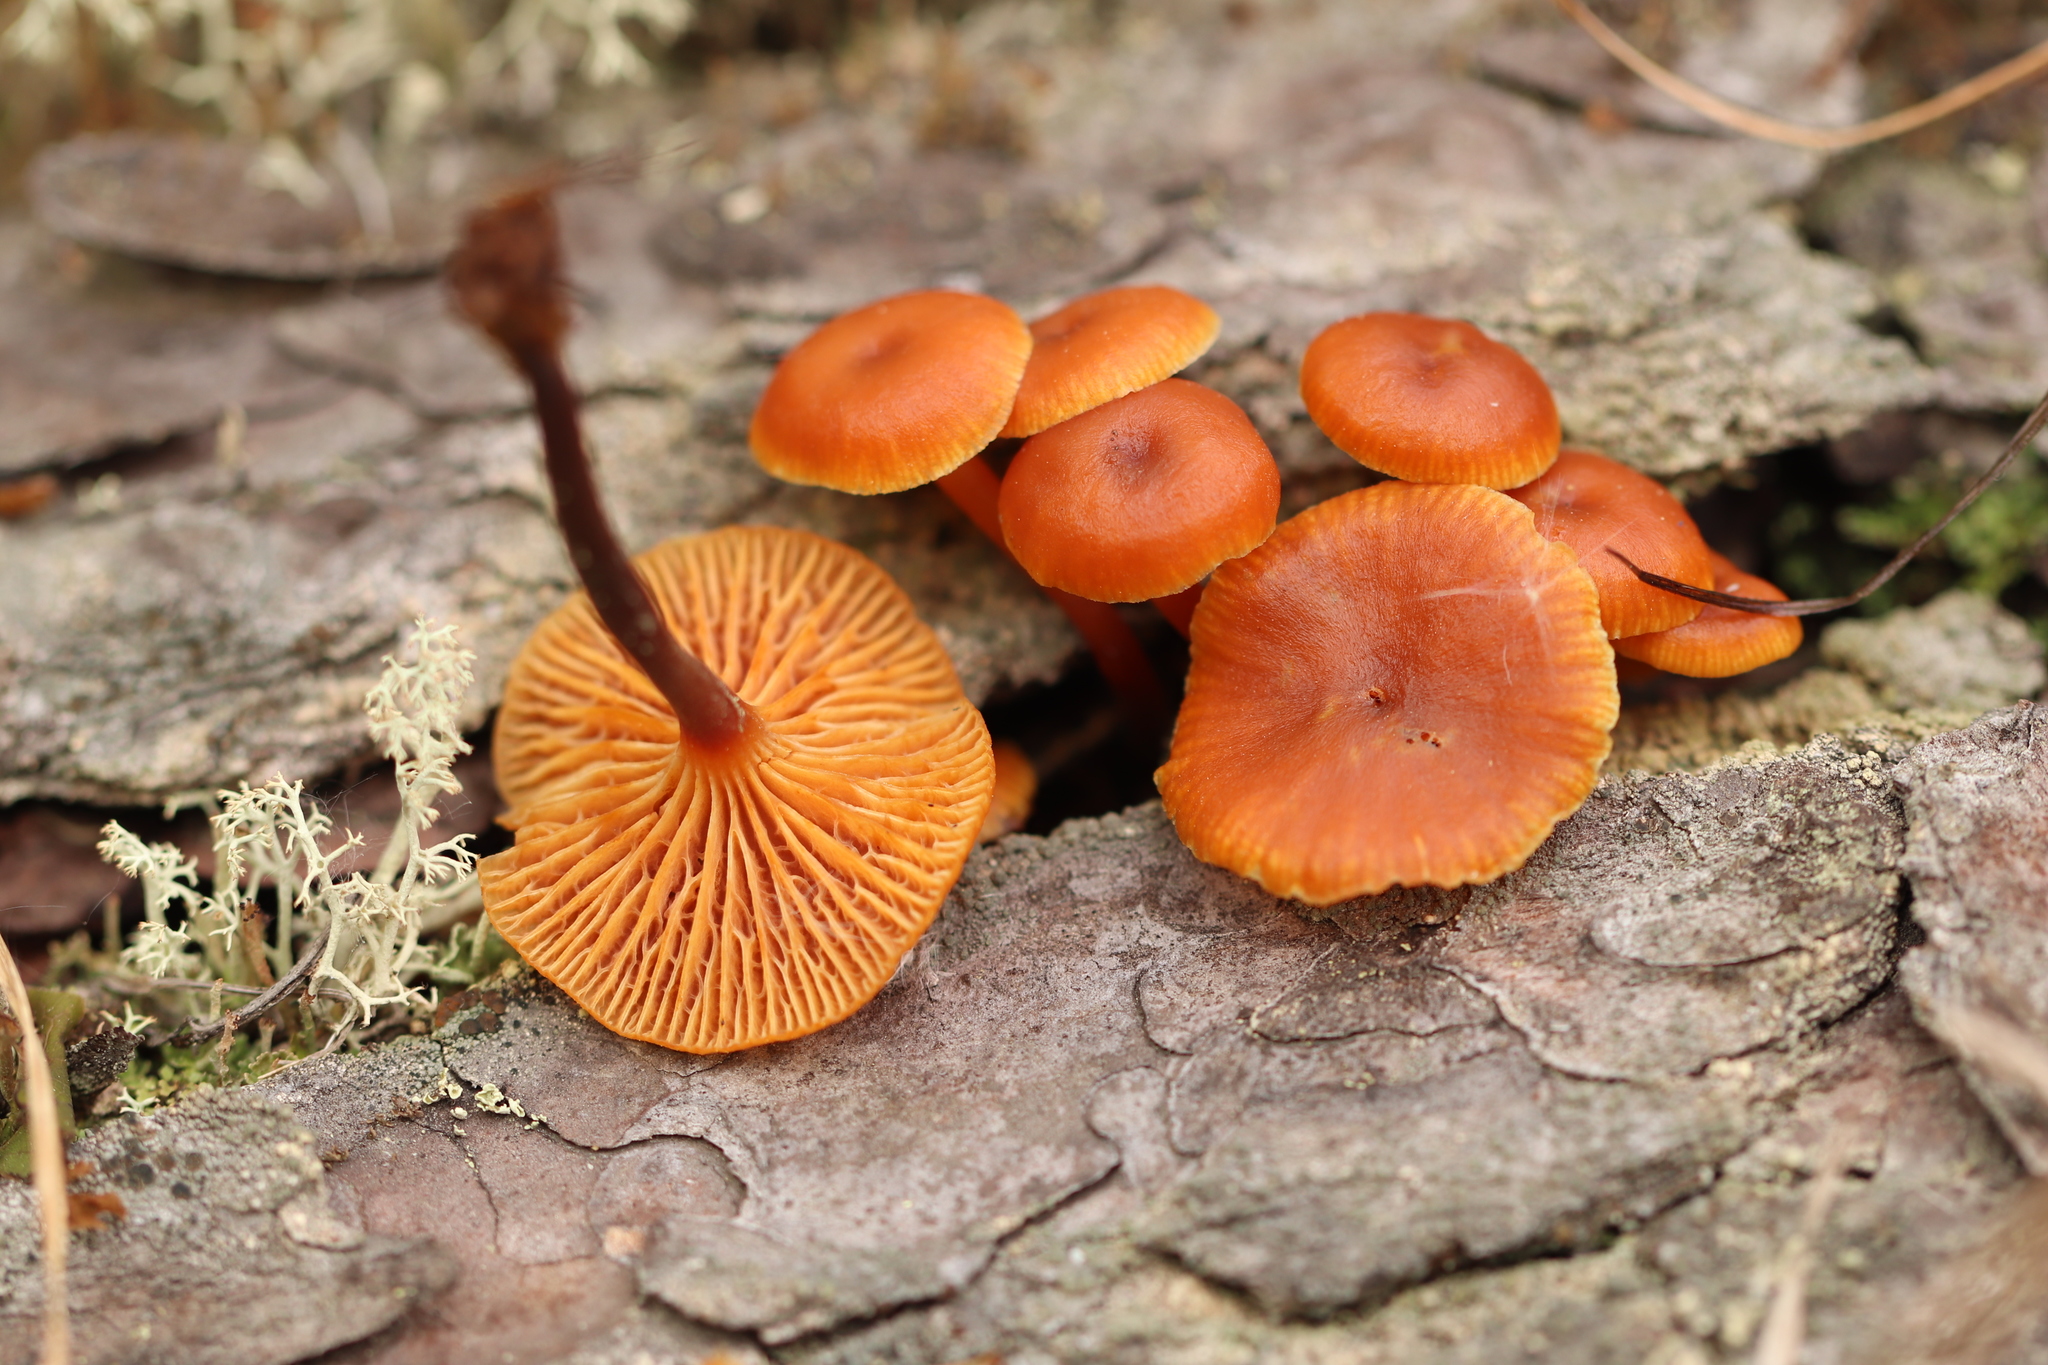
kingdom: Fungi
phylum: Basidiomycota
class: Agaricomycetes
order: Agaricales
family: Mycenaceae
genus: Xeromphalina
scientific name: Xeromphalina campanella
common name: Pinewood gingertail
